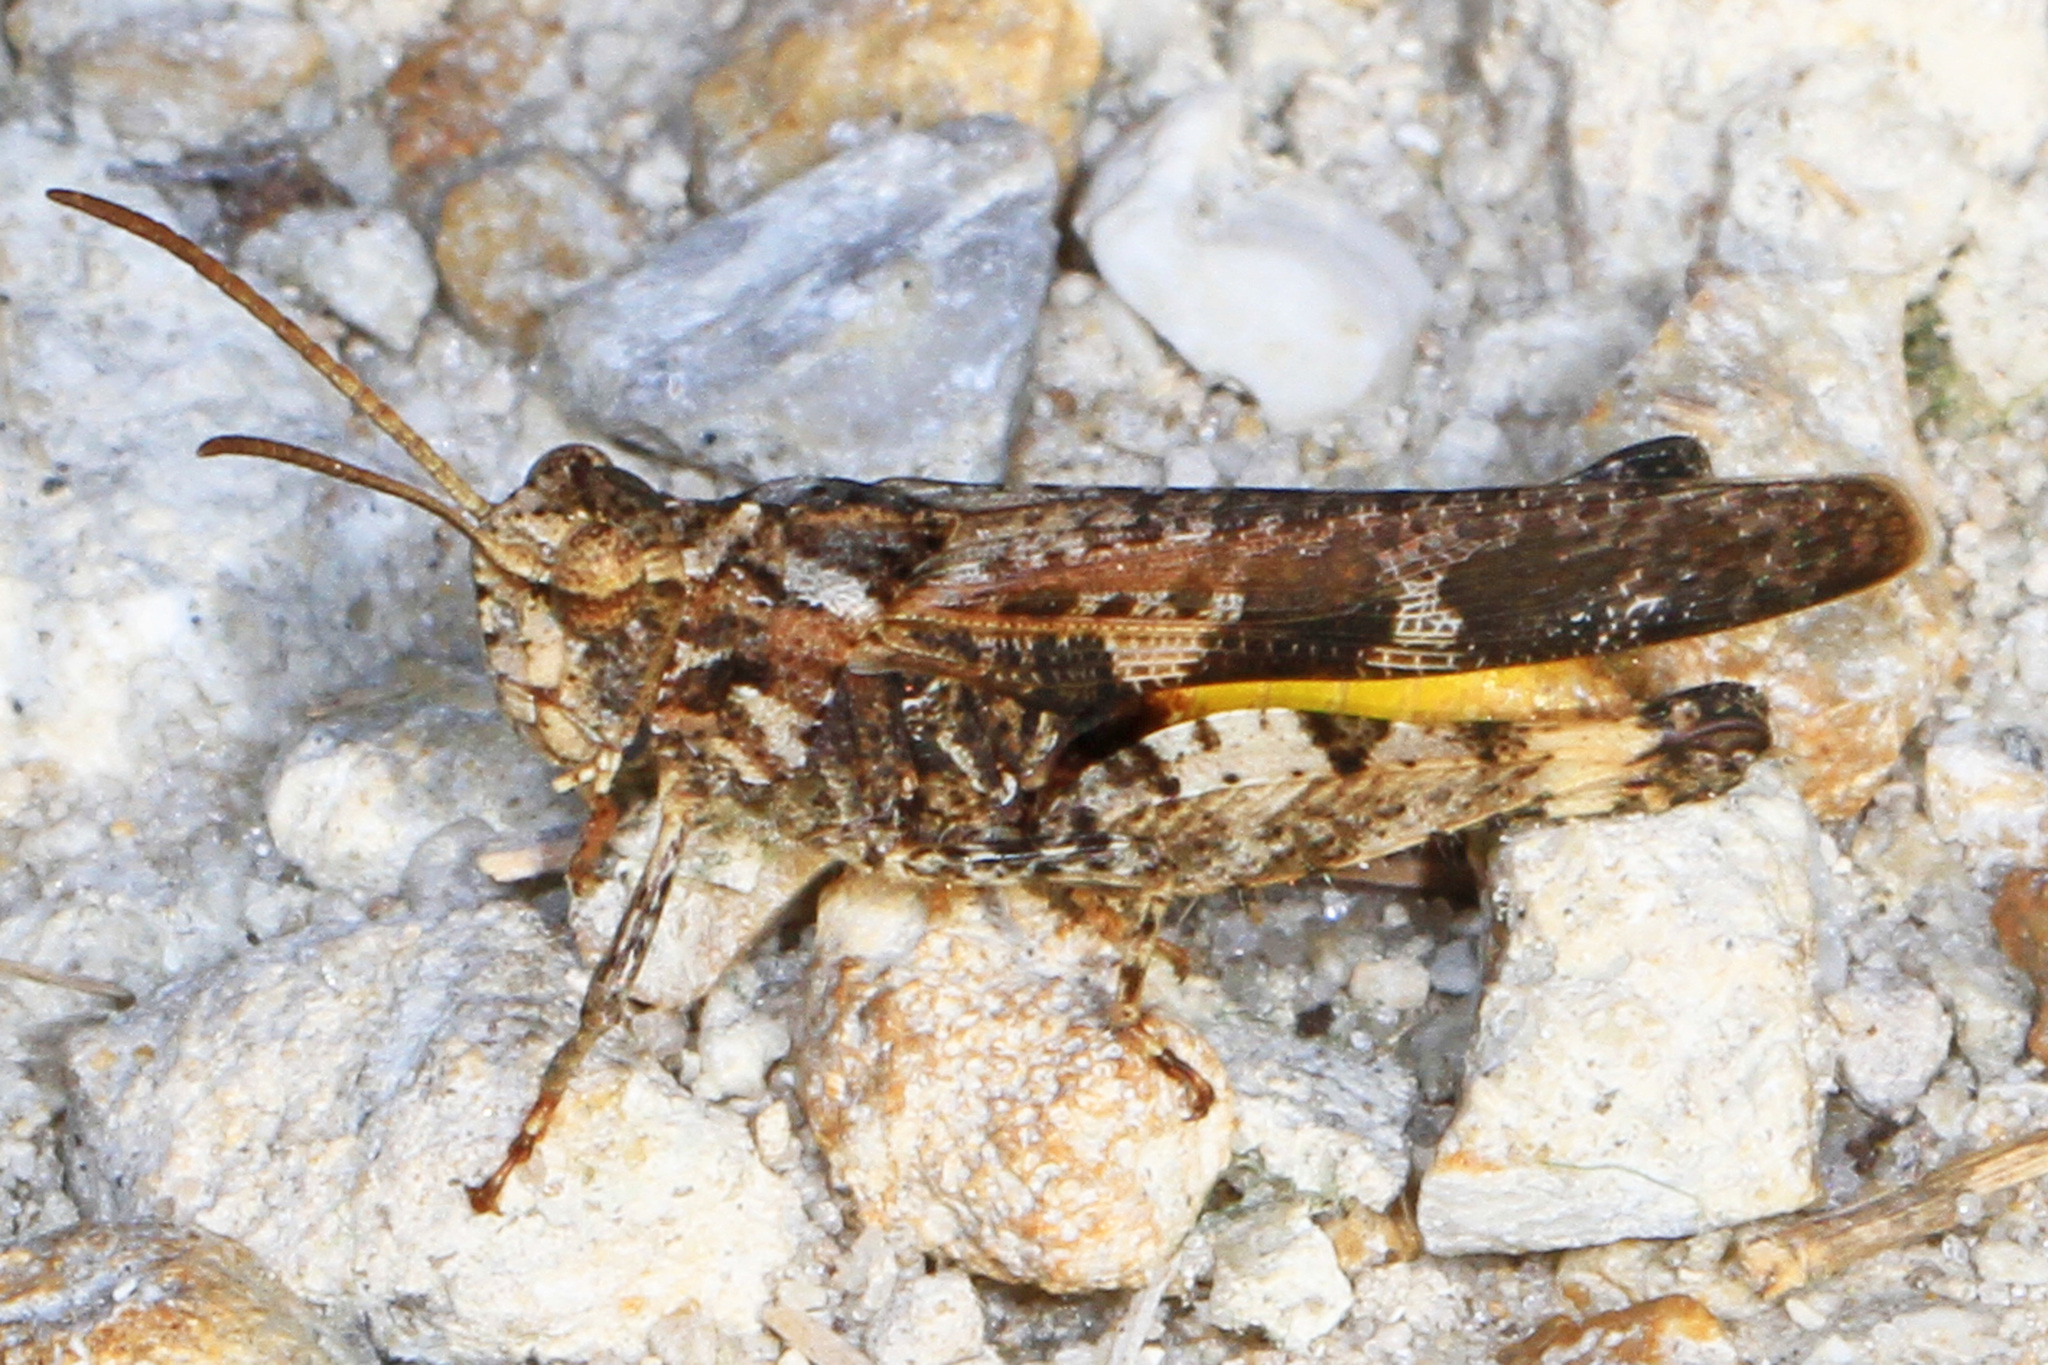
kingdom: Animalia
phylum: Arthropoda
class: Insecta
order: Orthoptera
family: Acrididae
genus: Chortophaga
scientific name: Chortophaga australior
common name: Southern green-striped grasshopper
